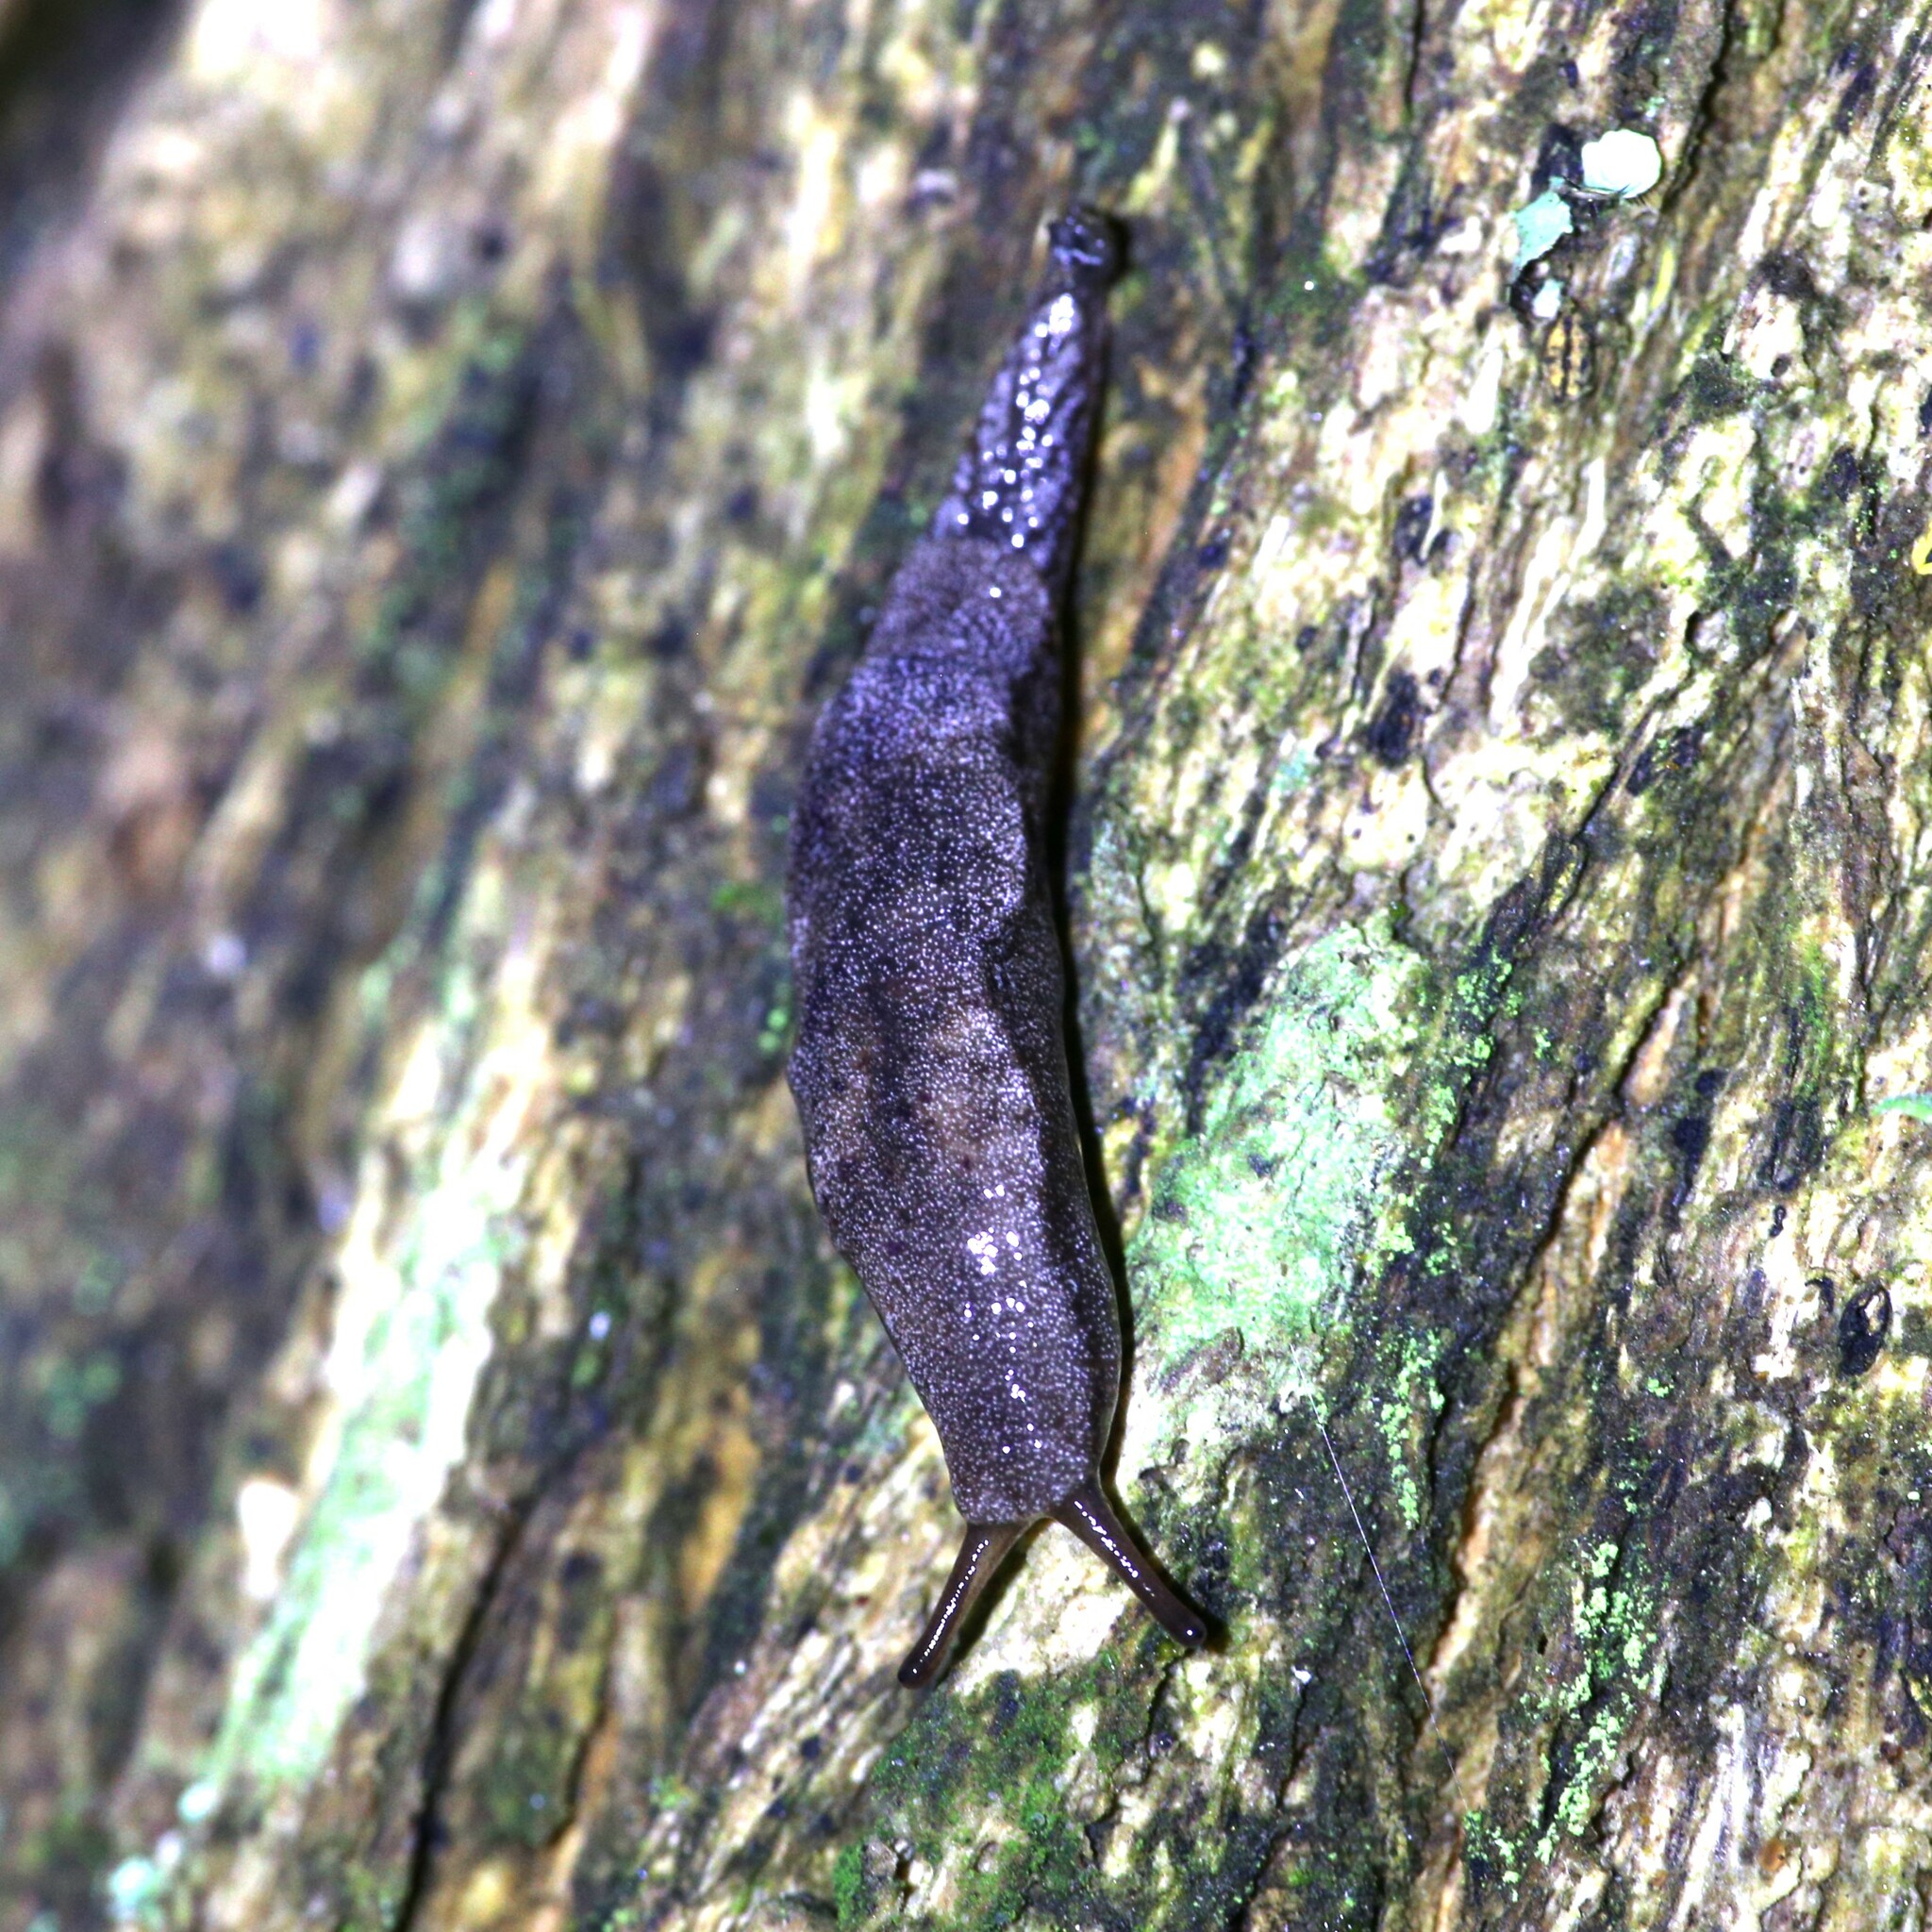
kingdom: Animalia
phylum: Mollusca
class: Gastropoda
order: Stylommatophora
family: Cystopeltidae
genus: Cystopelta
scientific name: Cystopelta purpurea
